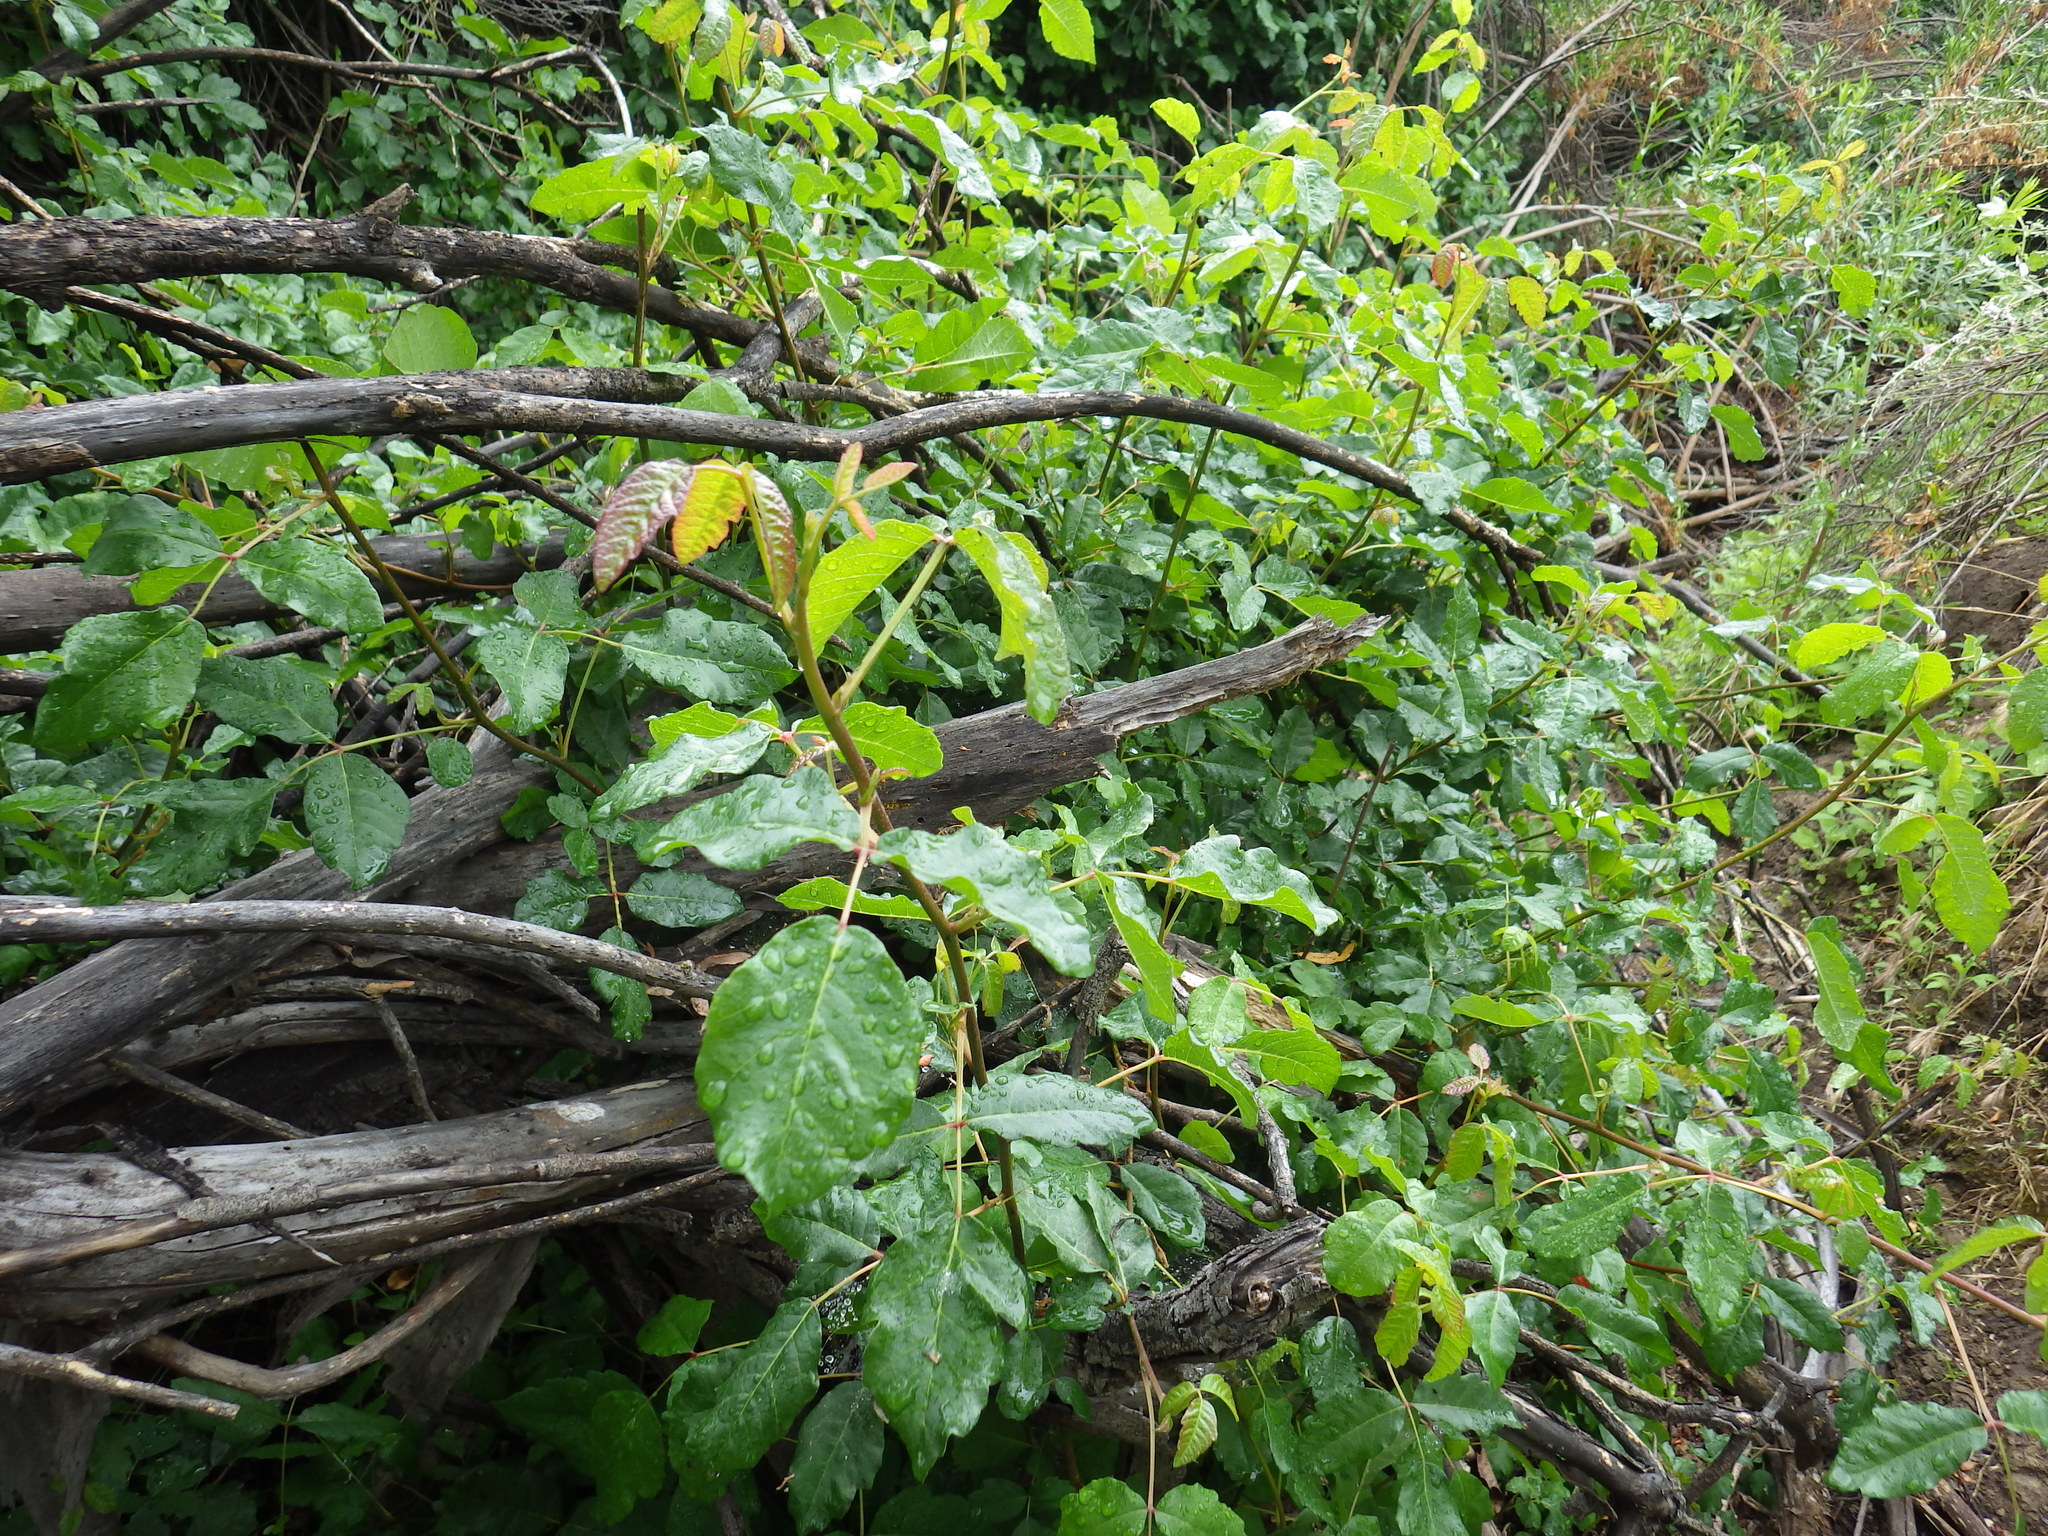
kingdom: Plantae
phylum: Tracheophyta
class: Magnoliopsida
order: Sapindales
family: Anacardiaceae
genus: Toxicodendron
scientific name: Toxicodendron diversilobum
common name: Pacific poison-oak
